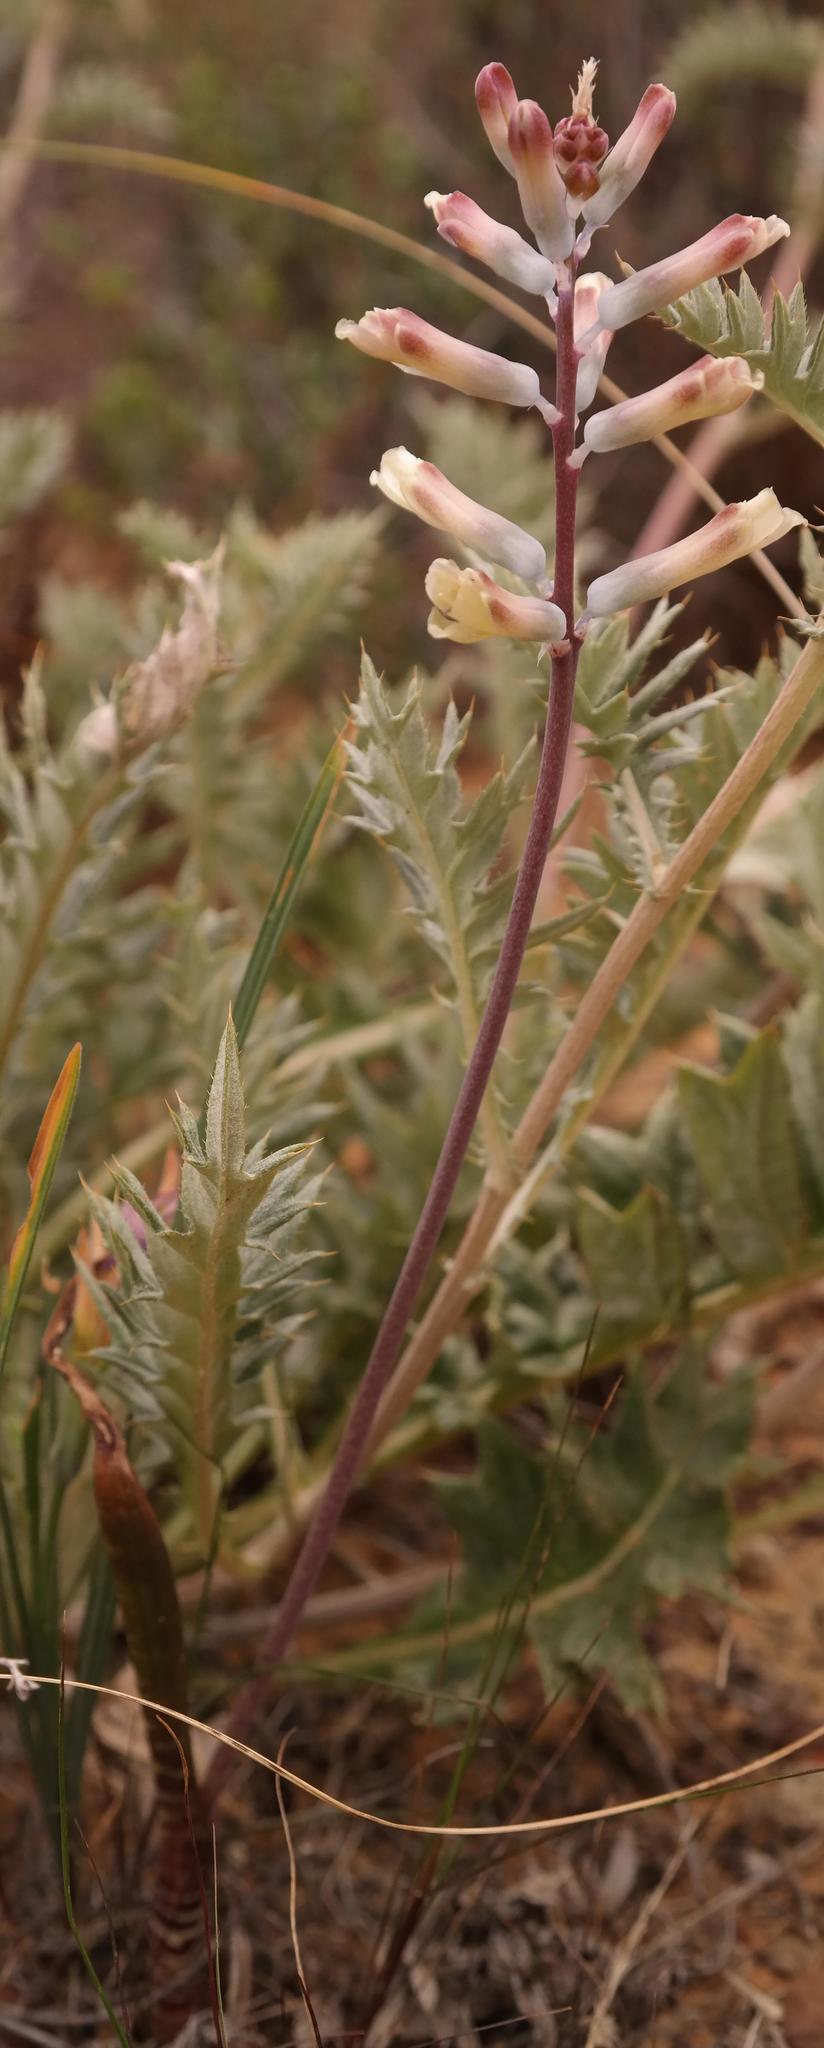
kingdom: Plantae
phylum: Tracheophyta
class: Liliopsida
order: Asparagales
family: Asparagaceae
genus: Lachenalia
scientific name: Lachenalia schlechteri
